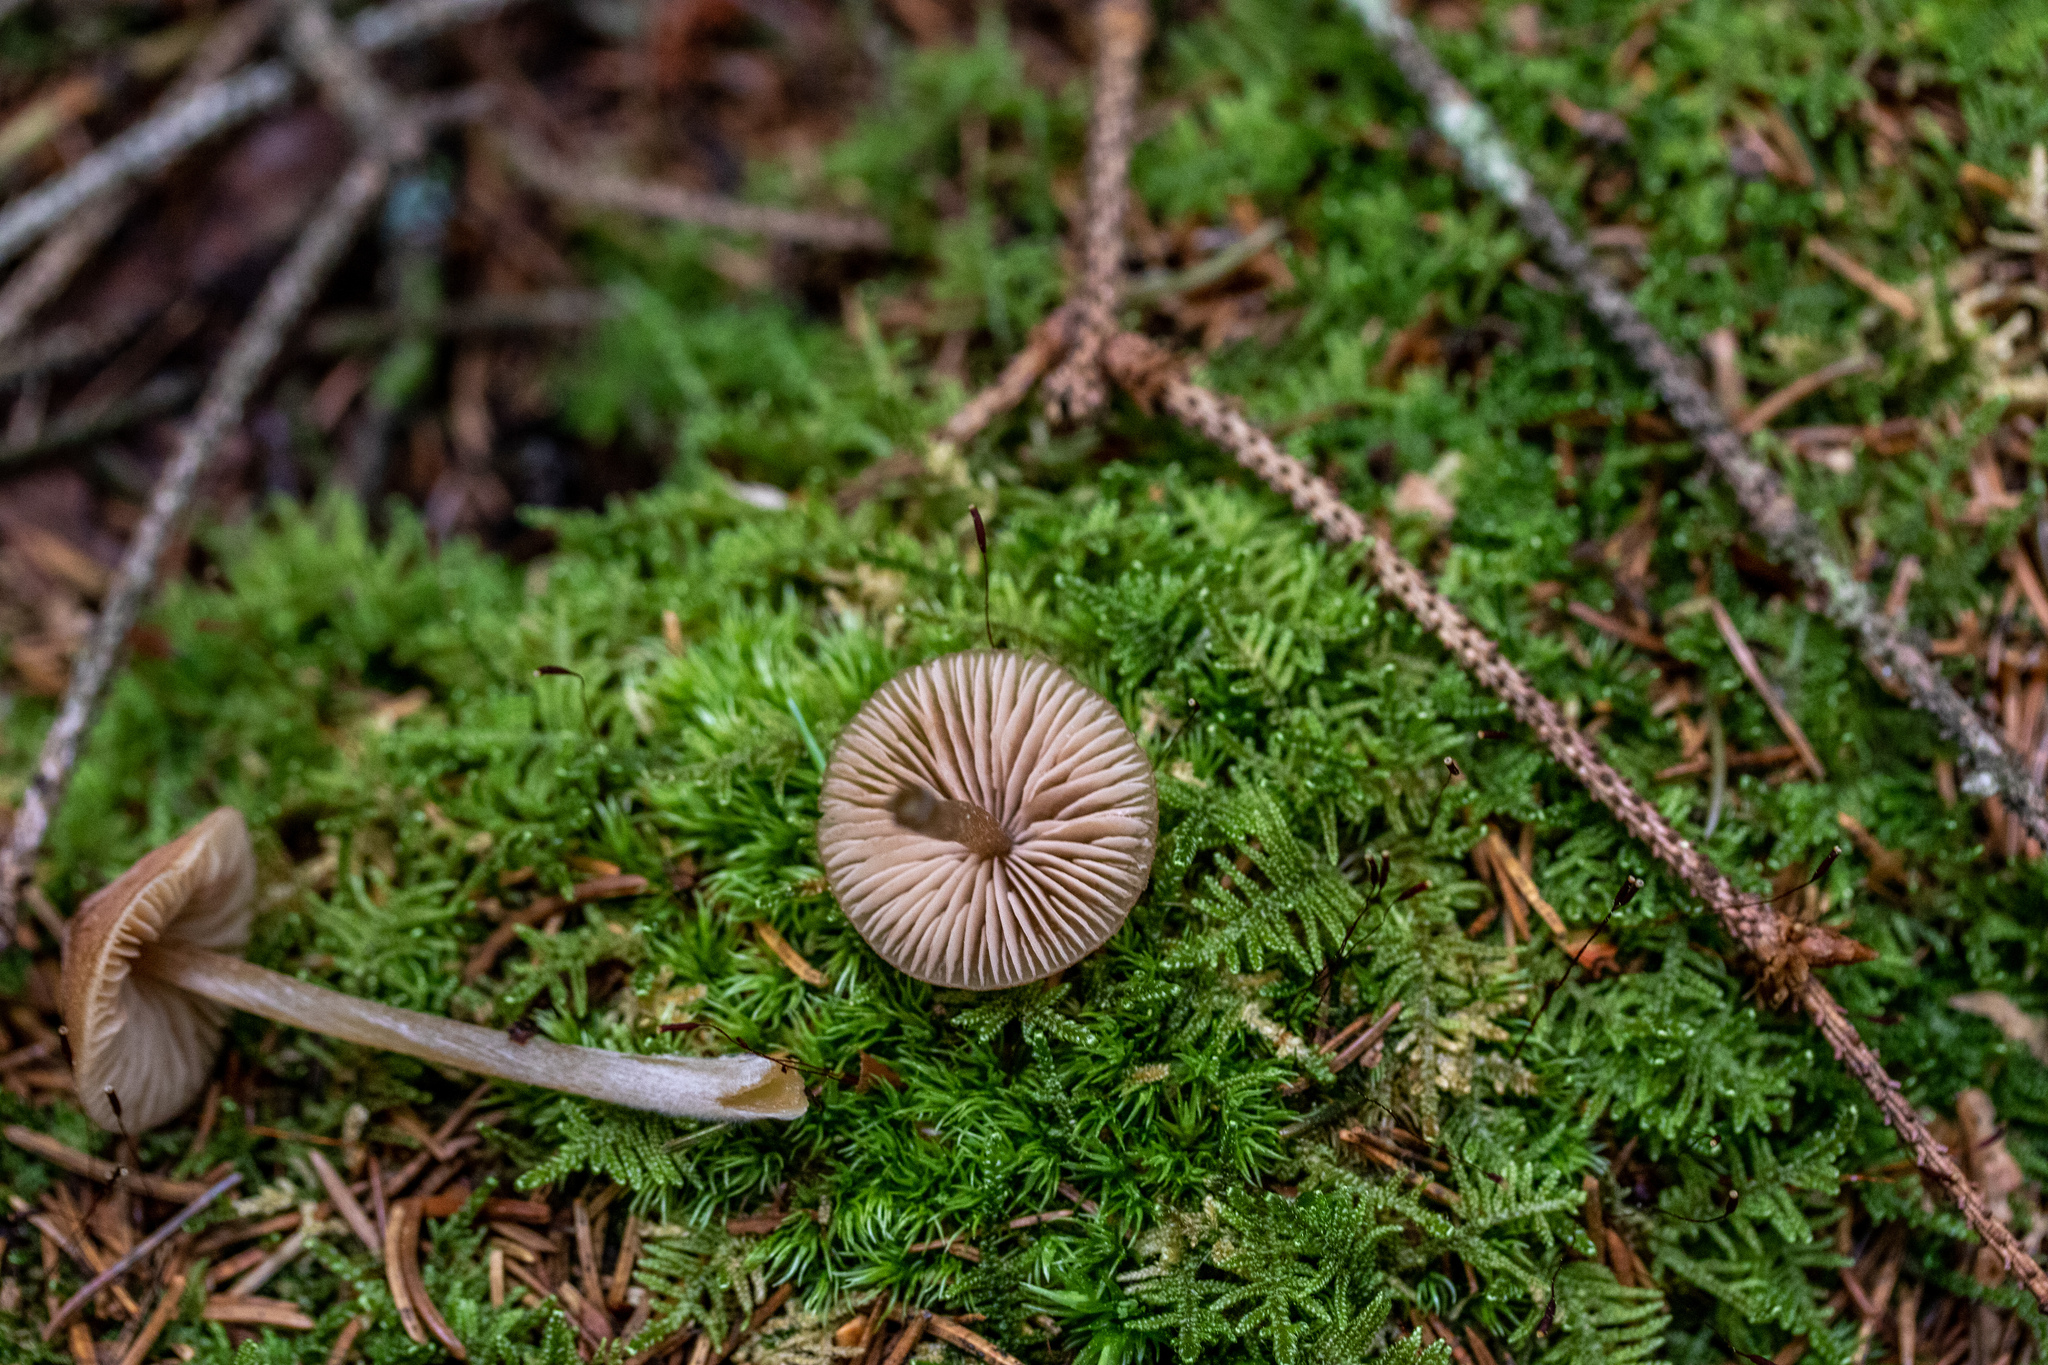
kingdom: Fungi
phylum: Basidiomycota
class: Agaricomycetes
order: Agaricales
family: Hymenogastraceae
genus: Galerina
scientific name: Galerina vittiformis
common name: Hairy leg bell
